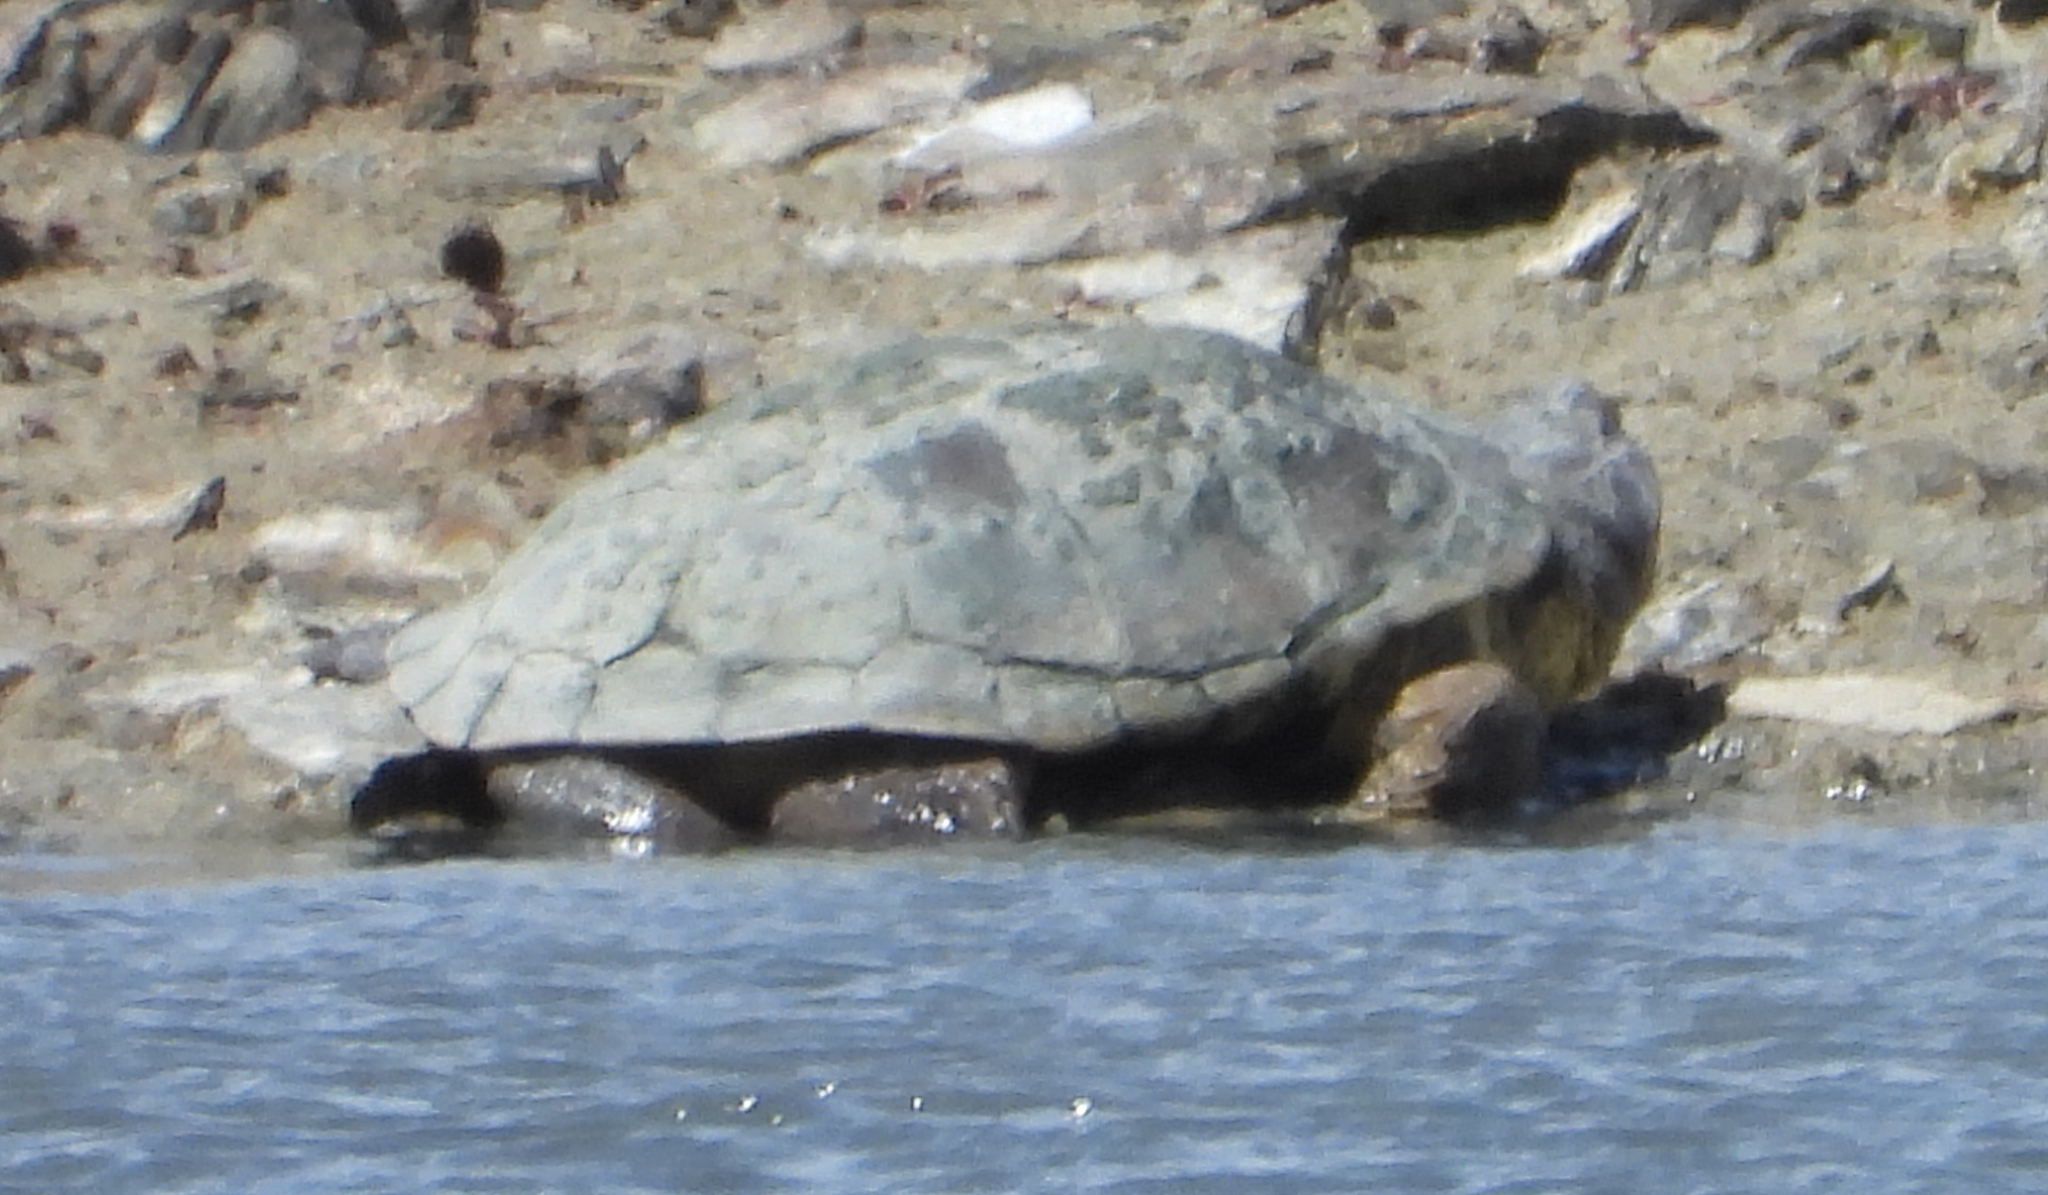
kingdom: Animalia
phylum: Chordata
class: Testudines
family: Pelomedusidae
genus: Pelomedusa
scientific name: Pelomedusa galeata
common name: South african helmeted terrapin
